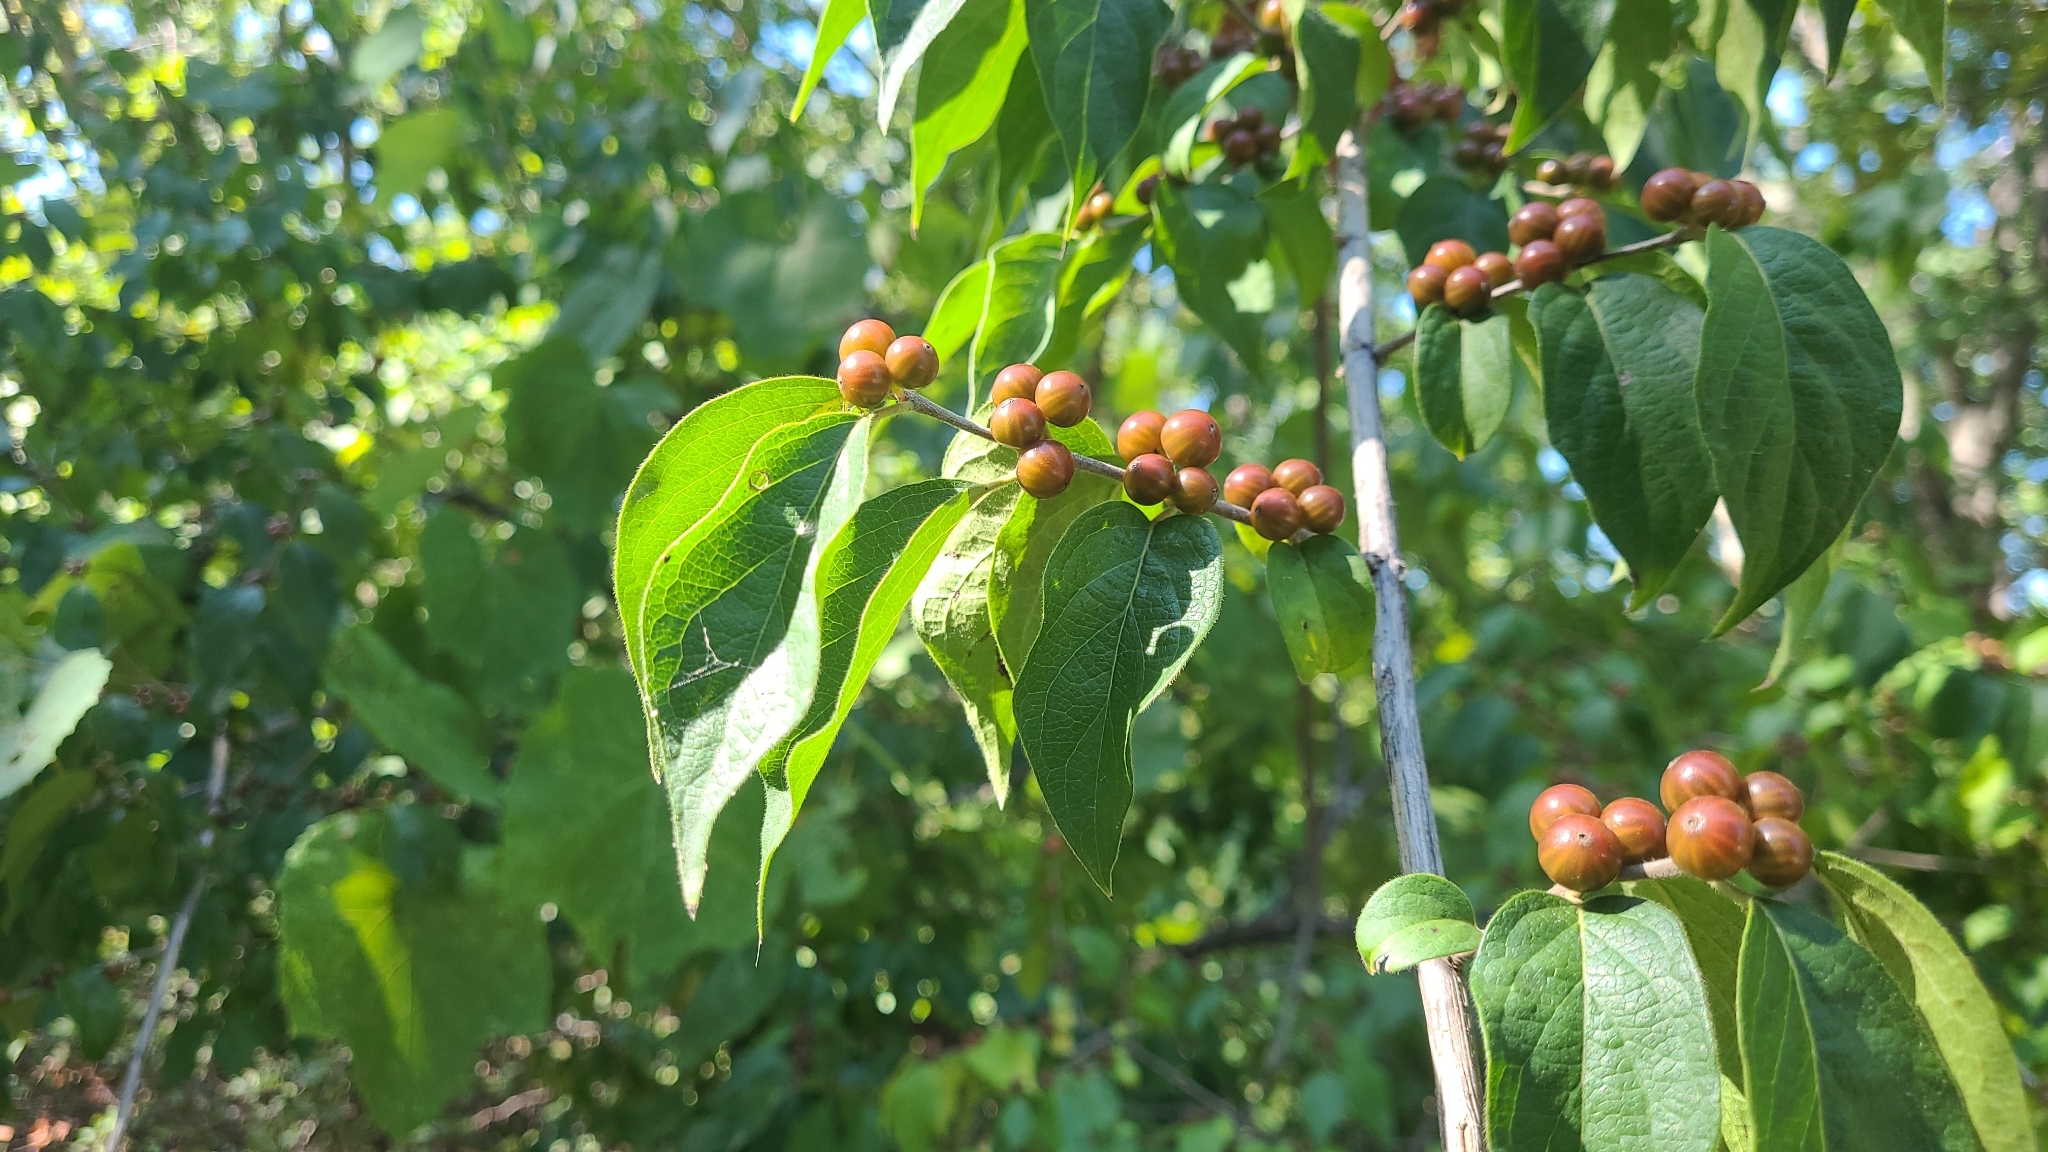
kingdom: Plantae
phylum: Tracheophyta
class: Magnoliopsida
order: Dipsacales
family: Caprifoliaceae
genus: Lonicera
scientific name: Lonicera maackii
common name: Amur honeysuckle
